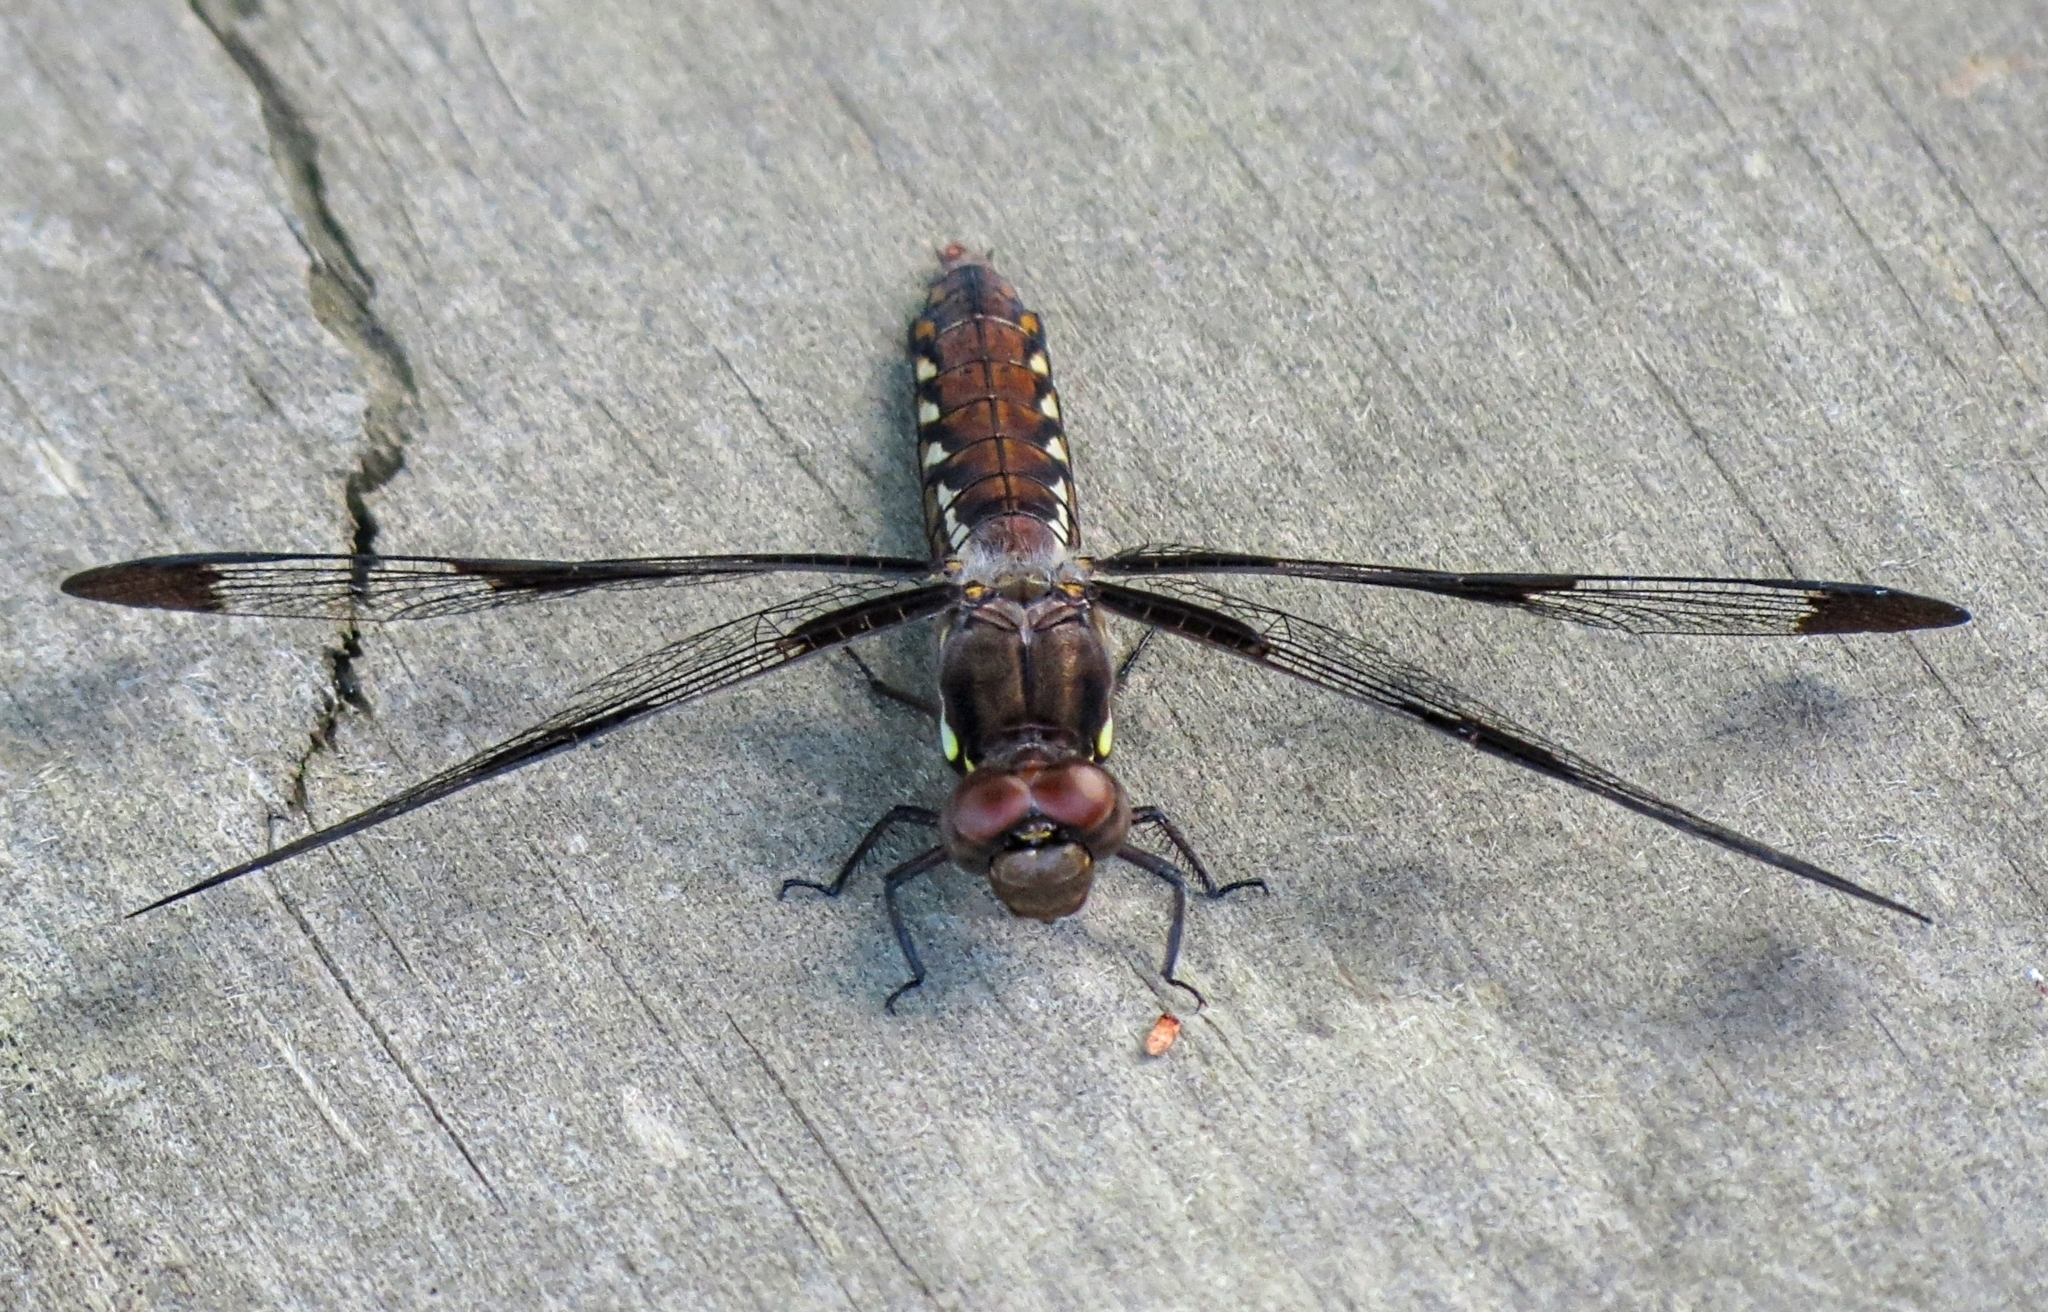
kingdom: Animalia
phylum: Arthropoda
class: Insecta
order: Odonata
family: Libellulidae
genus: Plathemis
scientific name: Plathemis lydia
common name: Common whitetail
